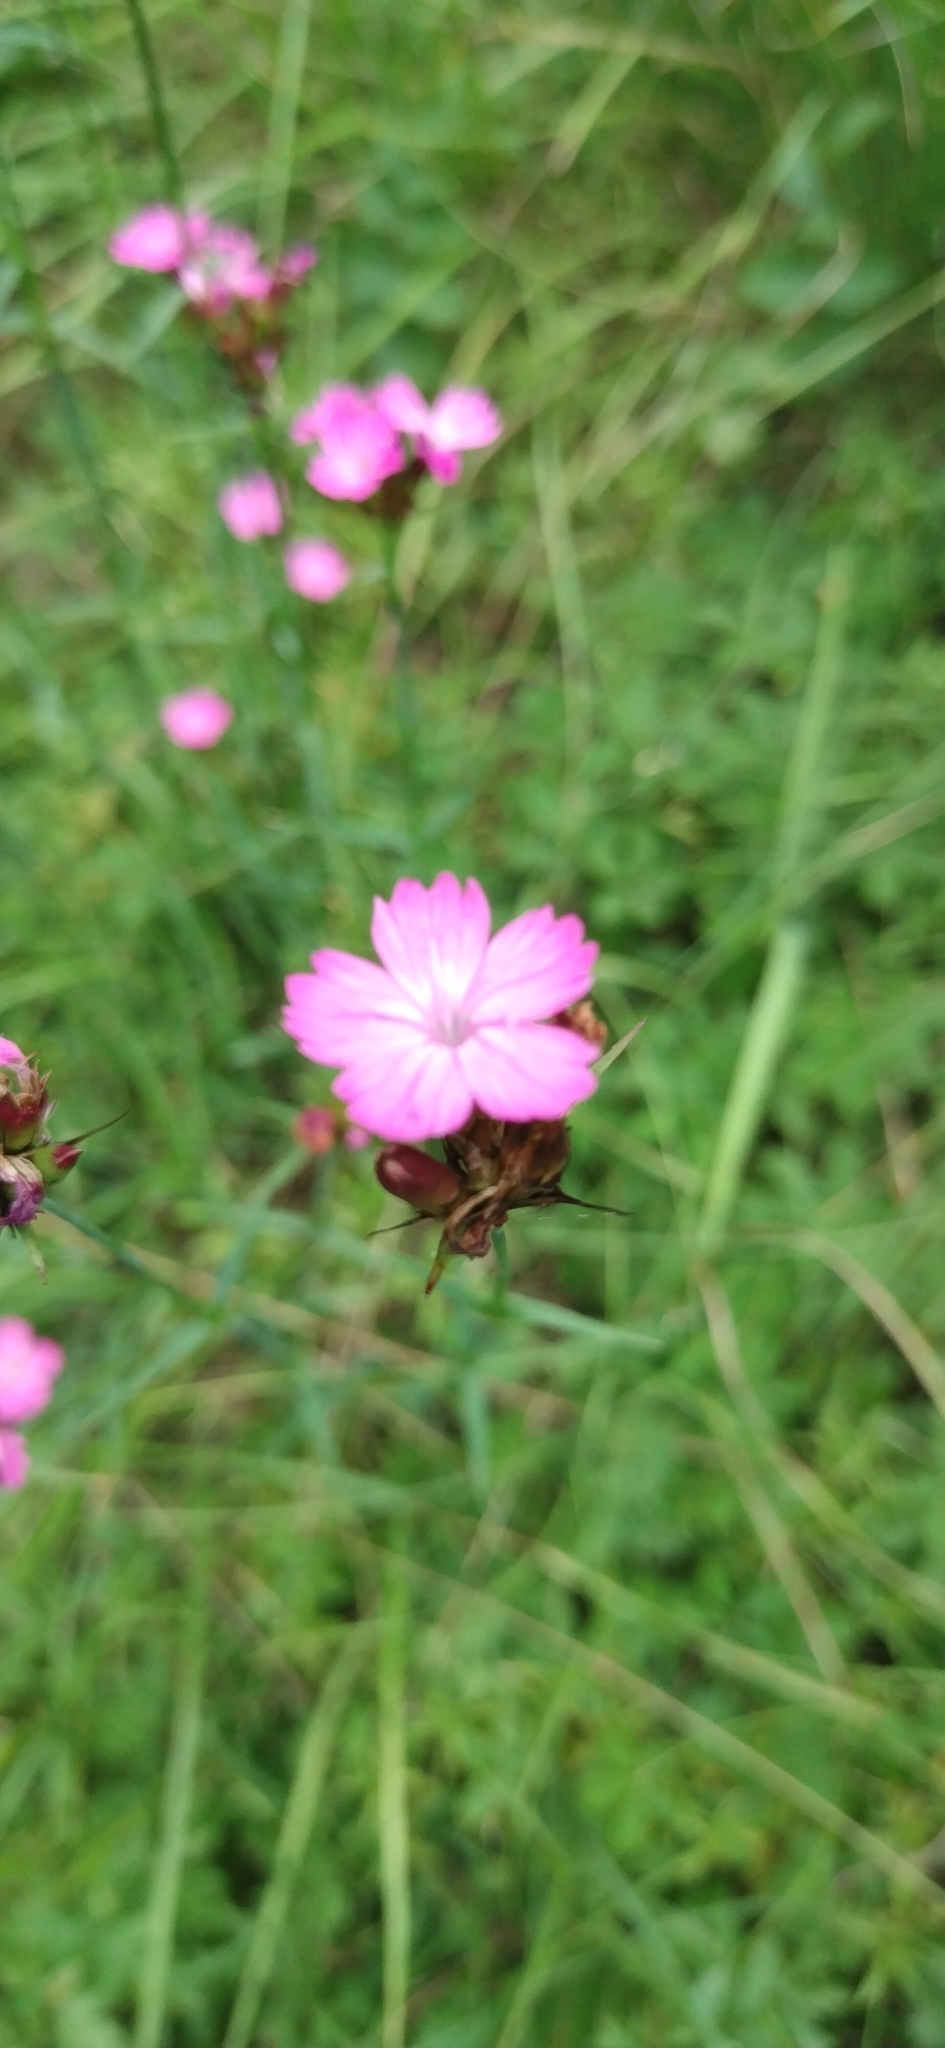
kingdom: Plantae
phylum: Tracheophyta
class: Magnoliopsida
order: Caryophyllales
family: Caryophyllaceae
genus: Dianthus
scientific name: Dianthus carthusianorum
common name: Carthusian pink
